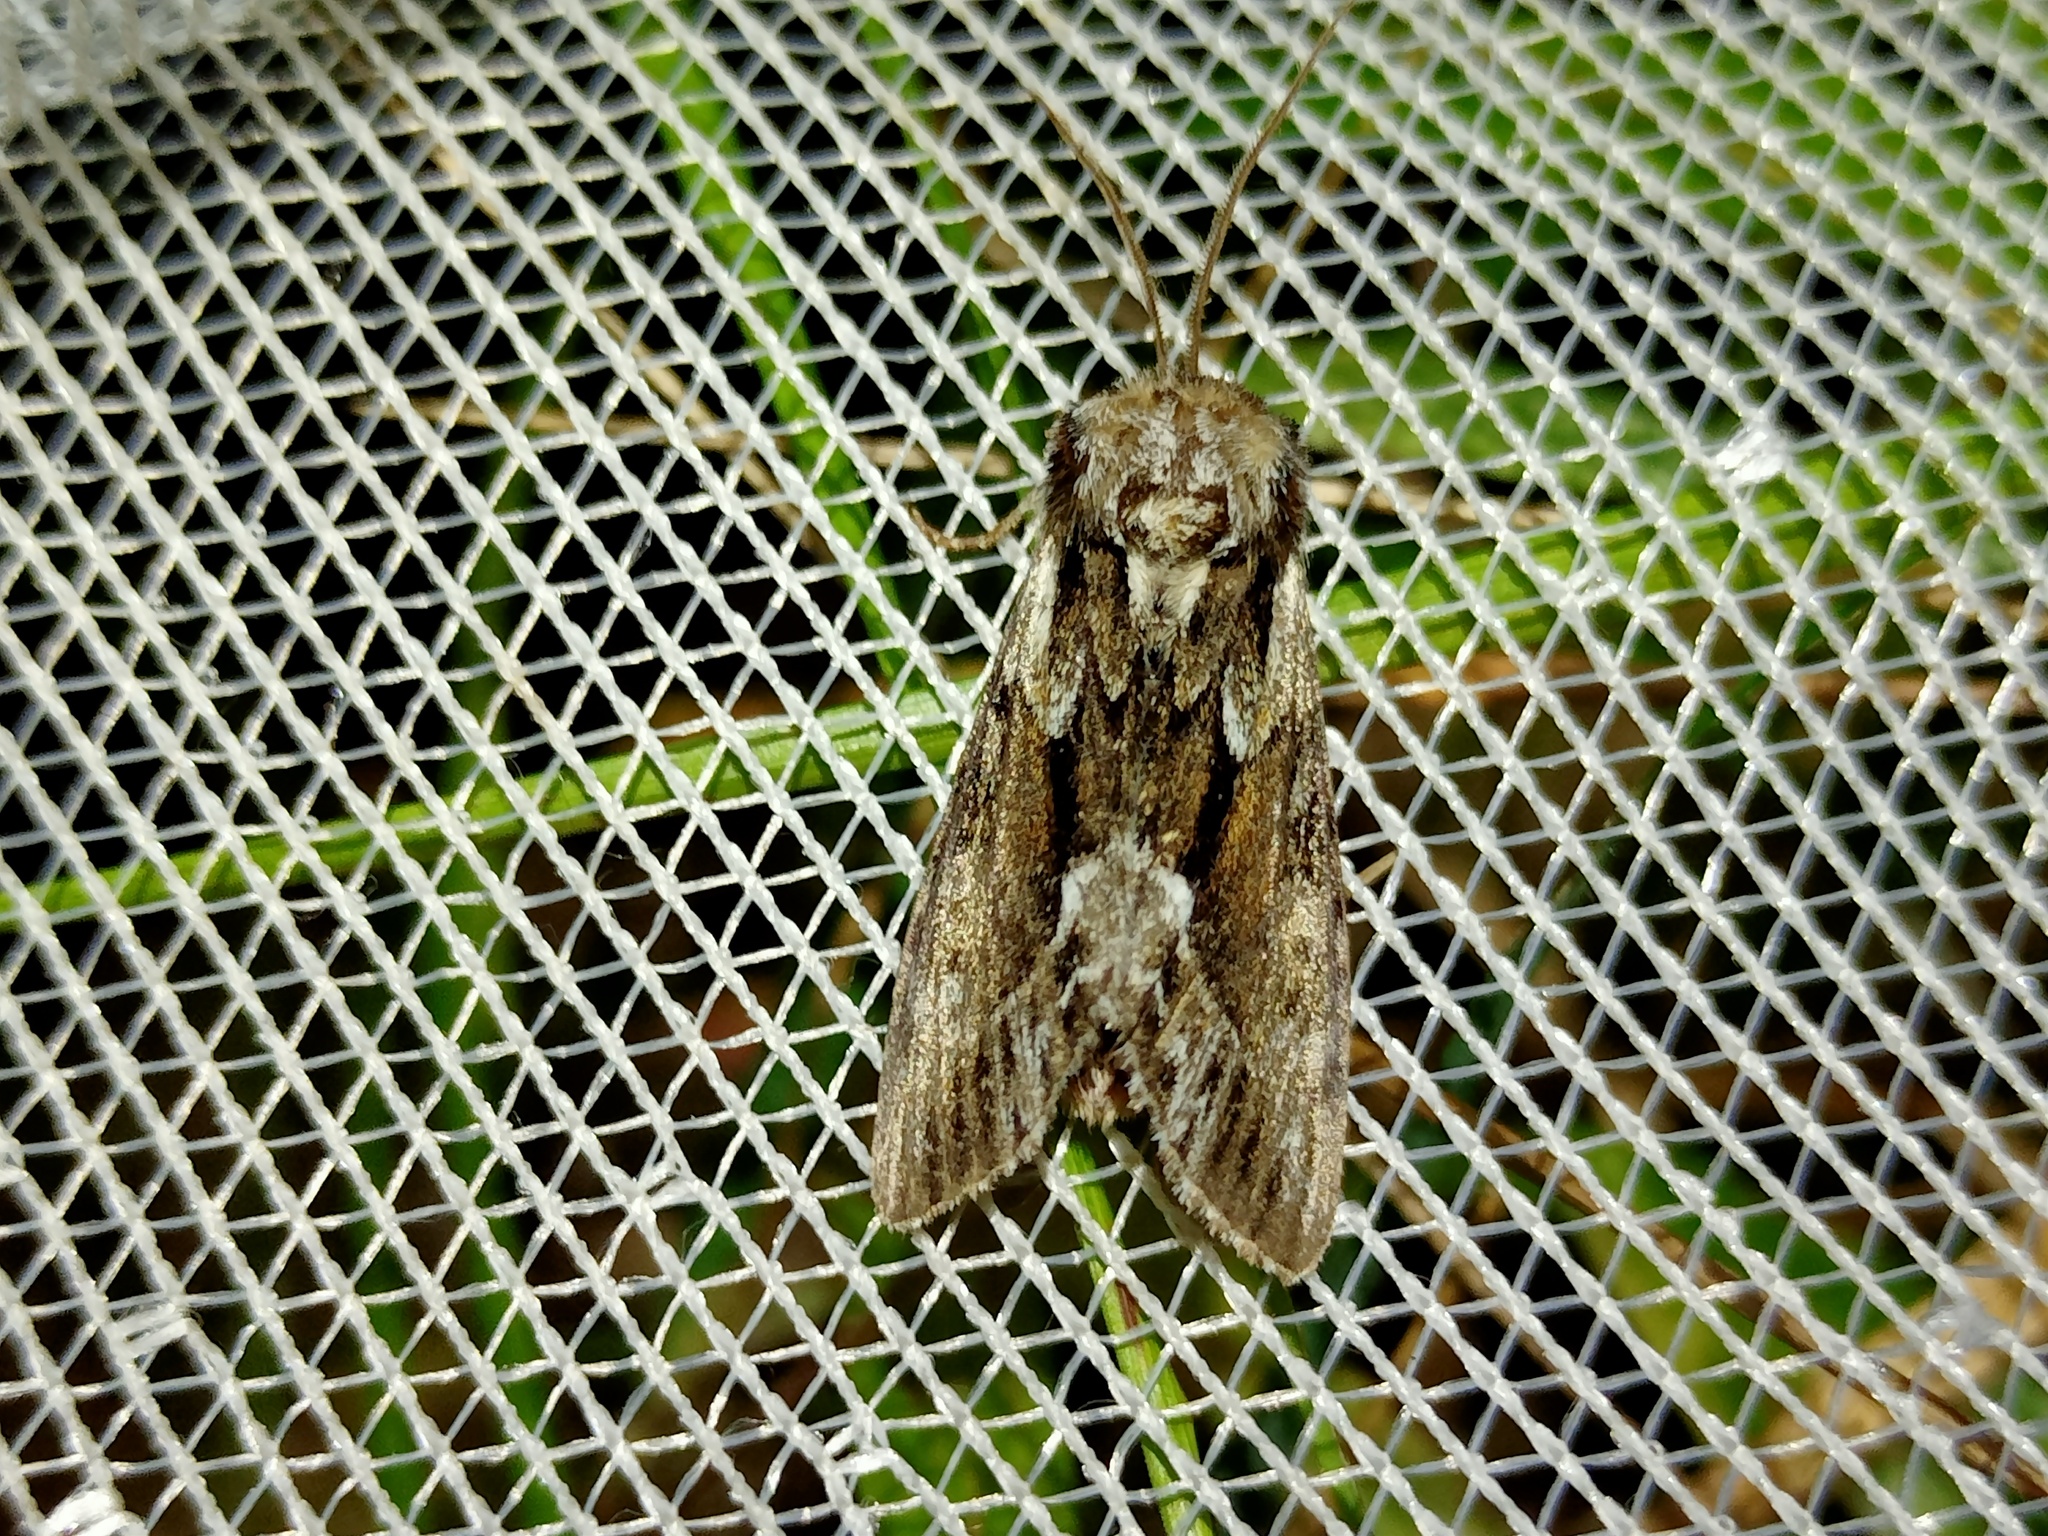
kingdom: Animalia
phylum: Arthropoda
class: Insecta
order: Lepidoptera
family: Noctuidae
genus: Hyppa
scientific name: Hyppa rectilinea
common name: Saxon
